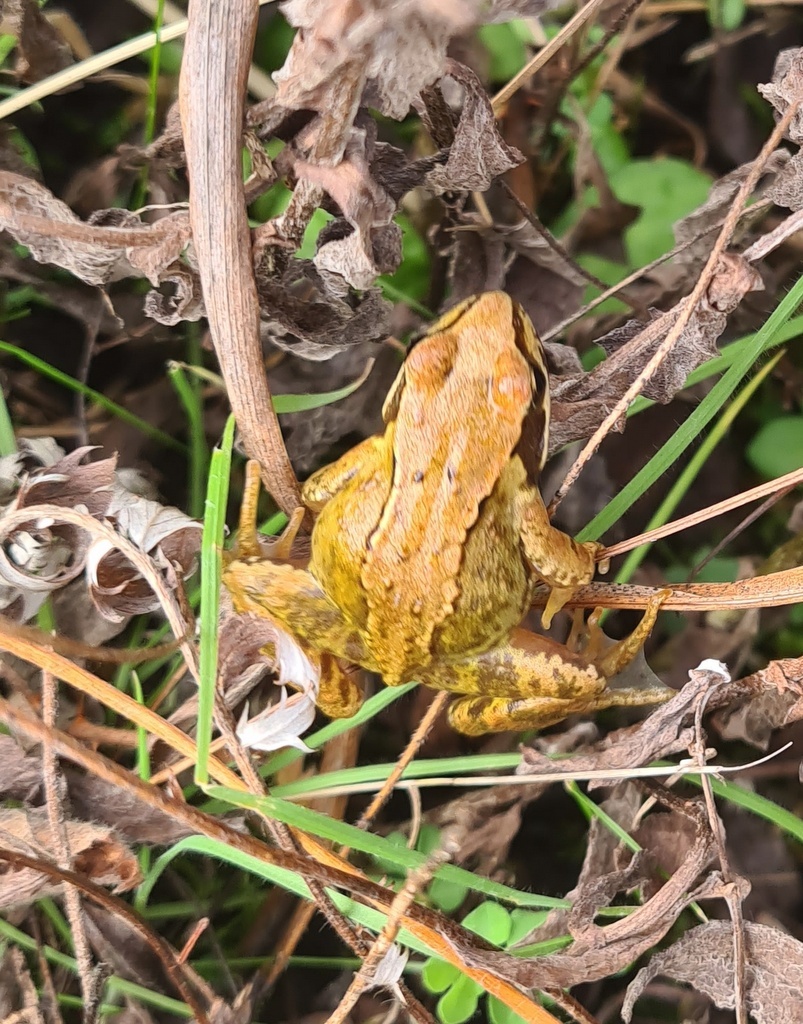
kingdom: Animalia
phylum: Chordata
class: Amphibia
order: Anura
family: Ranidae
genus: Rana
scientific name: Rana temporaria
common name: Common frog
